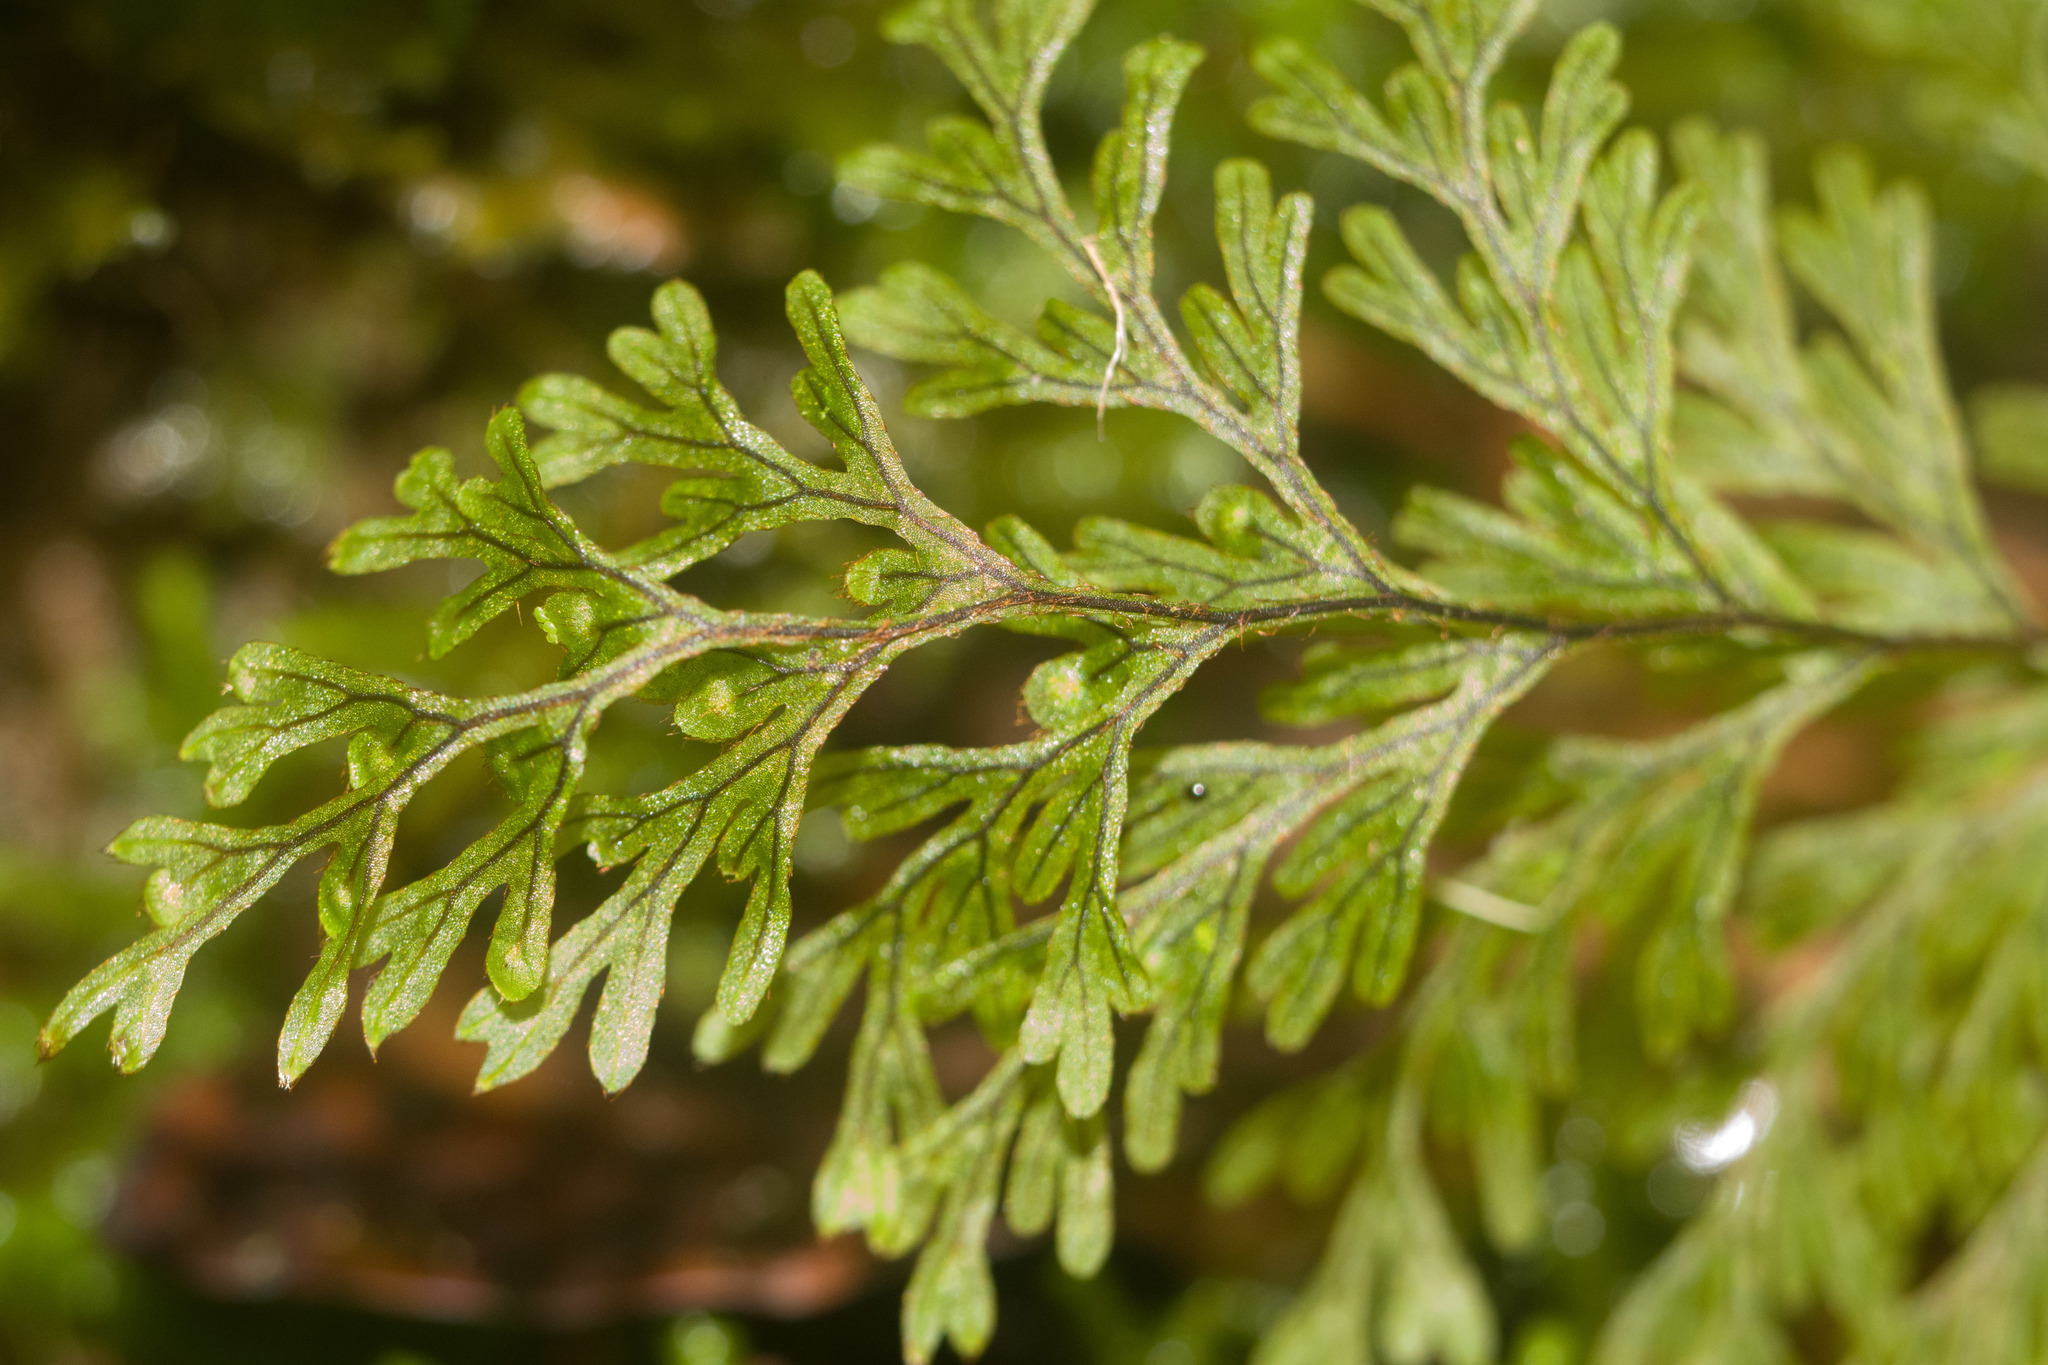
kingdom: Plantae
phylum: Tracheophyta
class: Polypodiopsida
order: Hymenophyllales
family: Hymenophyllaceae
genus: Hymenophyllum
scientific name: Hymenophyllum lanceolatum
